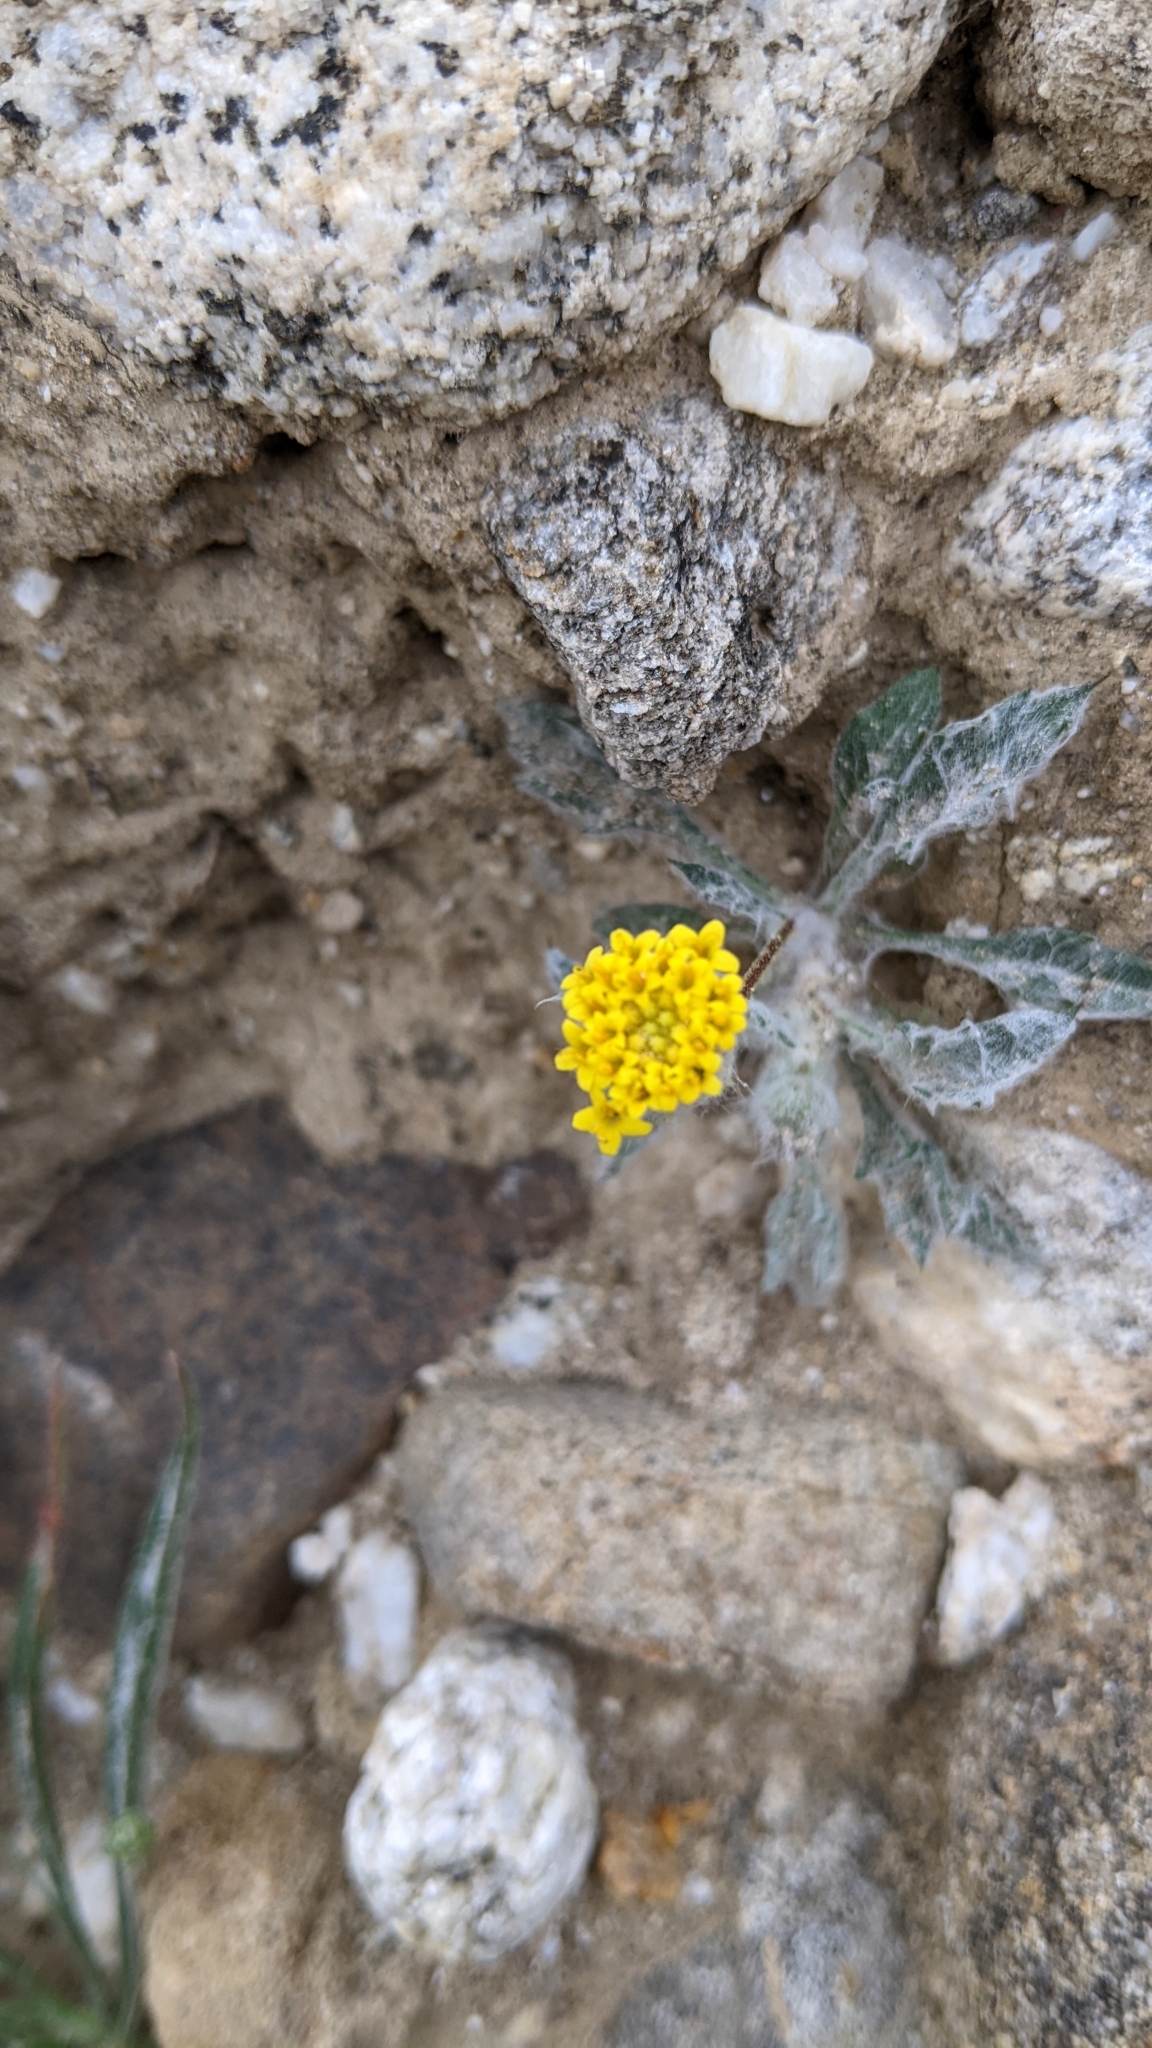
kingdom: Plantae
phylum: Tracheophyta
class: Magnoliopsida
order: Asterales
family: Asteraceae
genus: Trichoptilium
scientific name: Trichoptilium incisum
